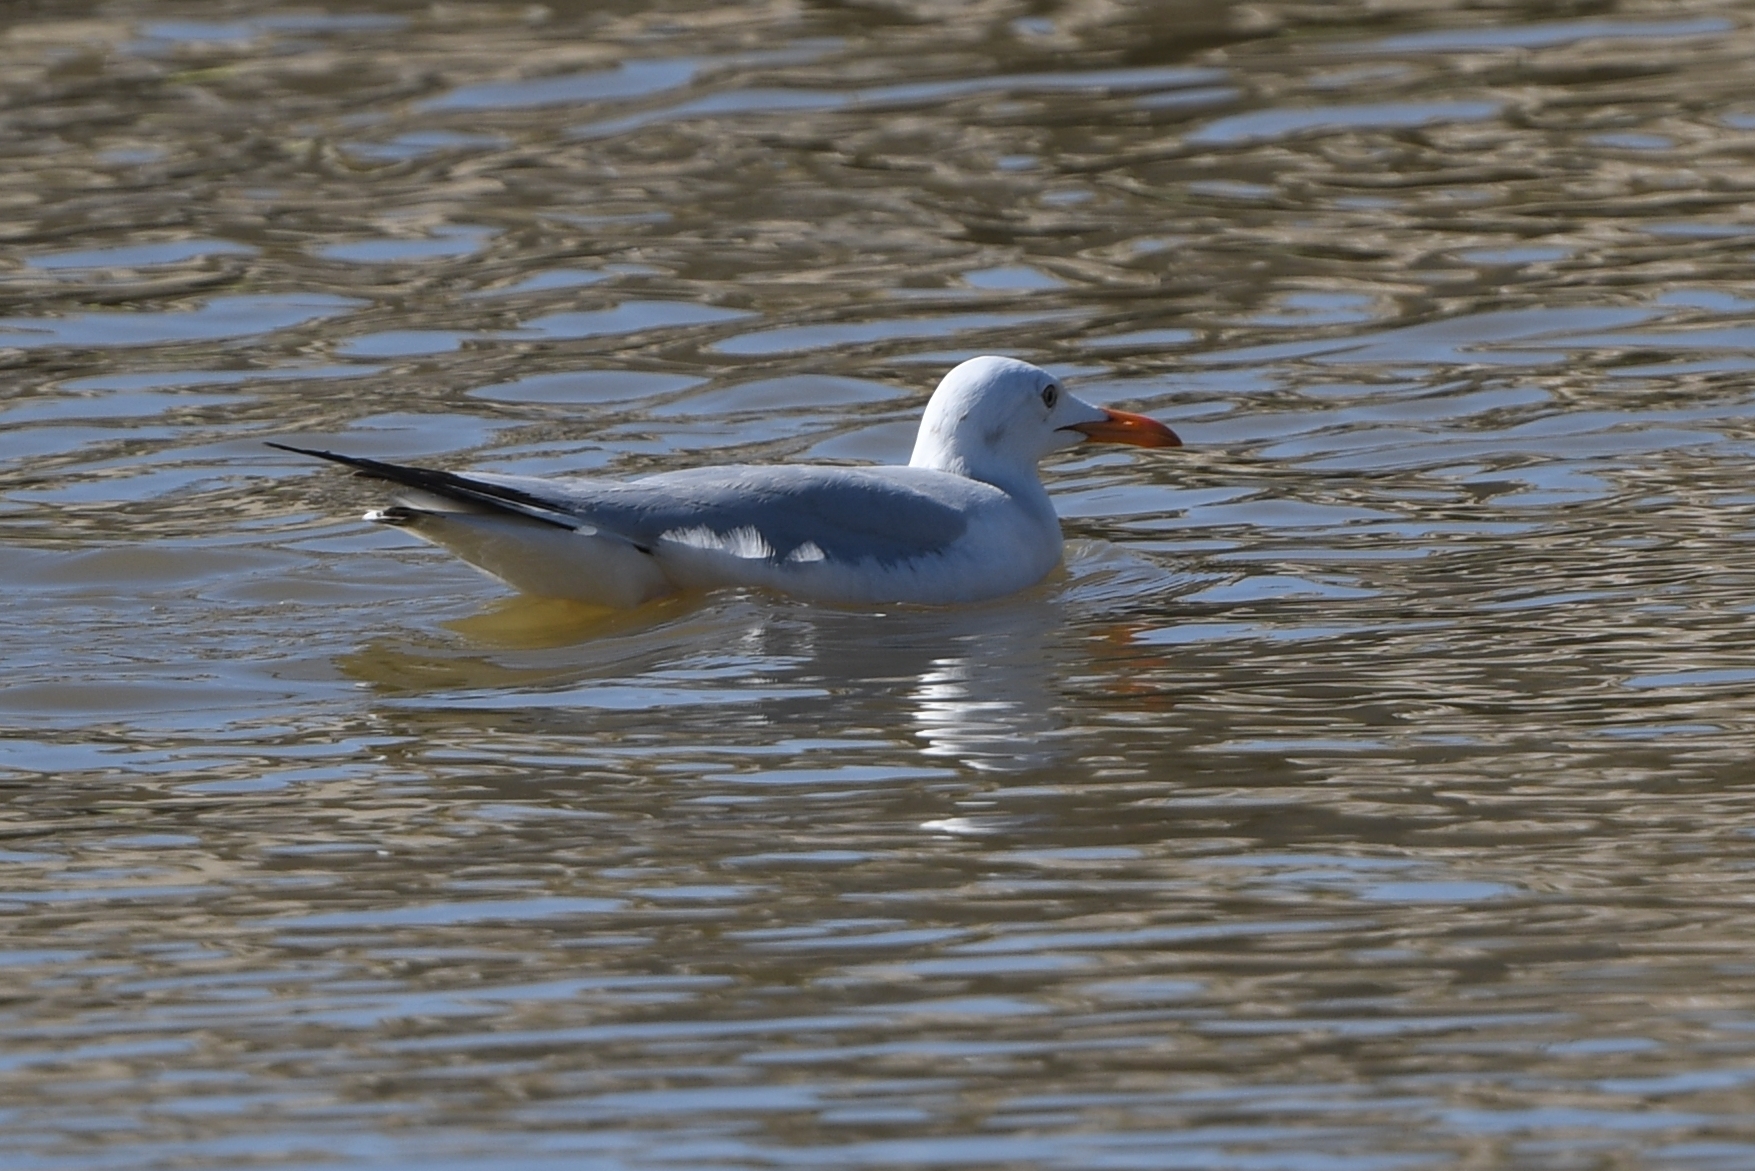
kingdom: Animalia
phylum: Chordata
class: Aves
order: Charadriiformes
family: Laridae
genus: Chroicocephalus
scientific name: Chroicocephalus genei
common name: Slender-billed gull
